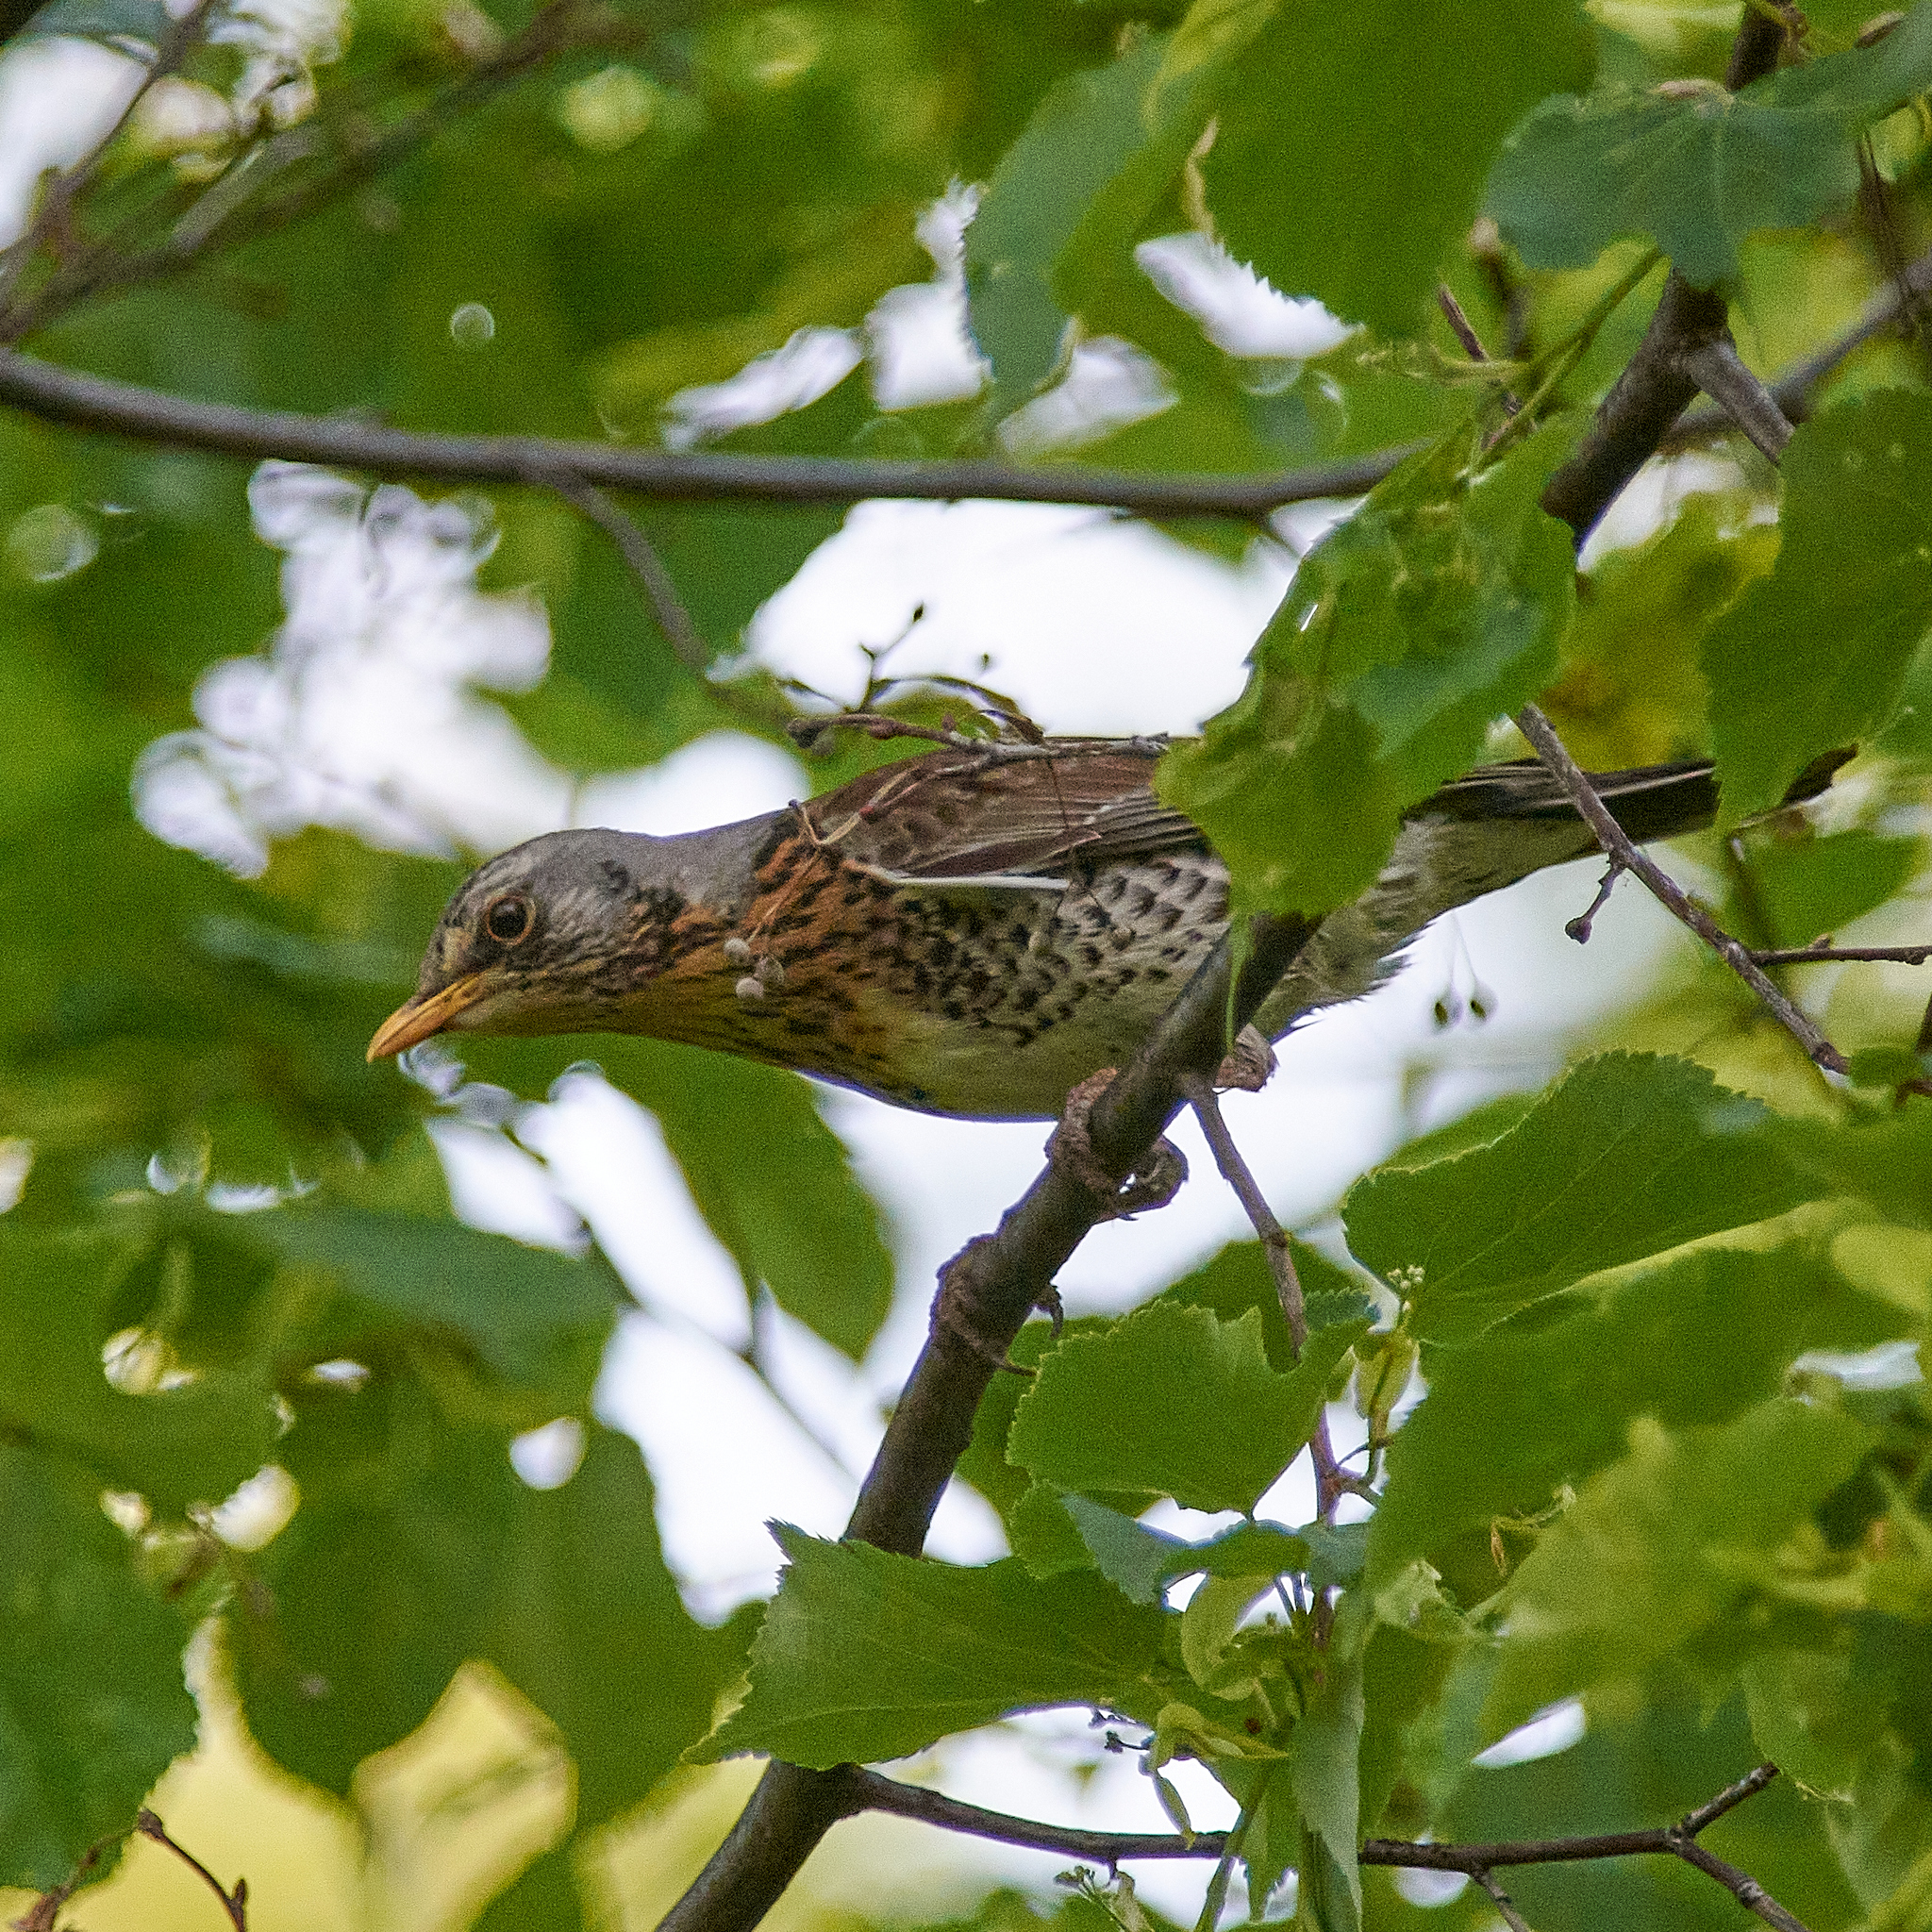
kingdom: Animalia
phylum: Chordata
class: Aves
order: Passeriformes
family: Turdidae
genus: Turdus
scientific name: Turdus pilaris
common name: Fieldfare
